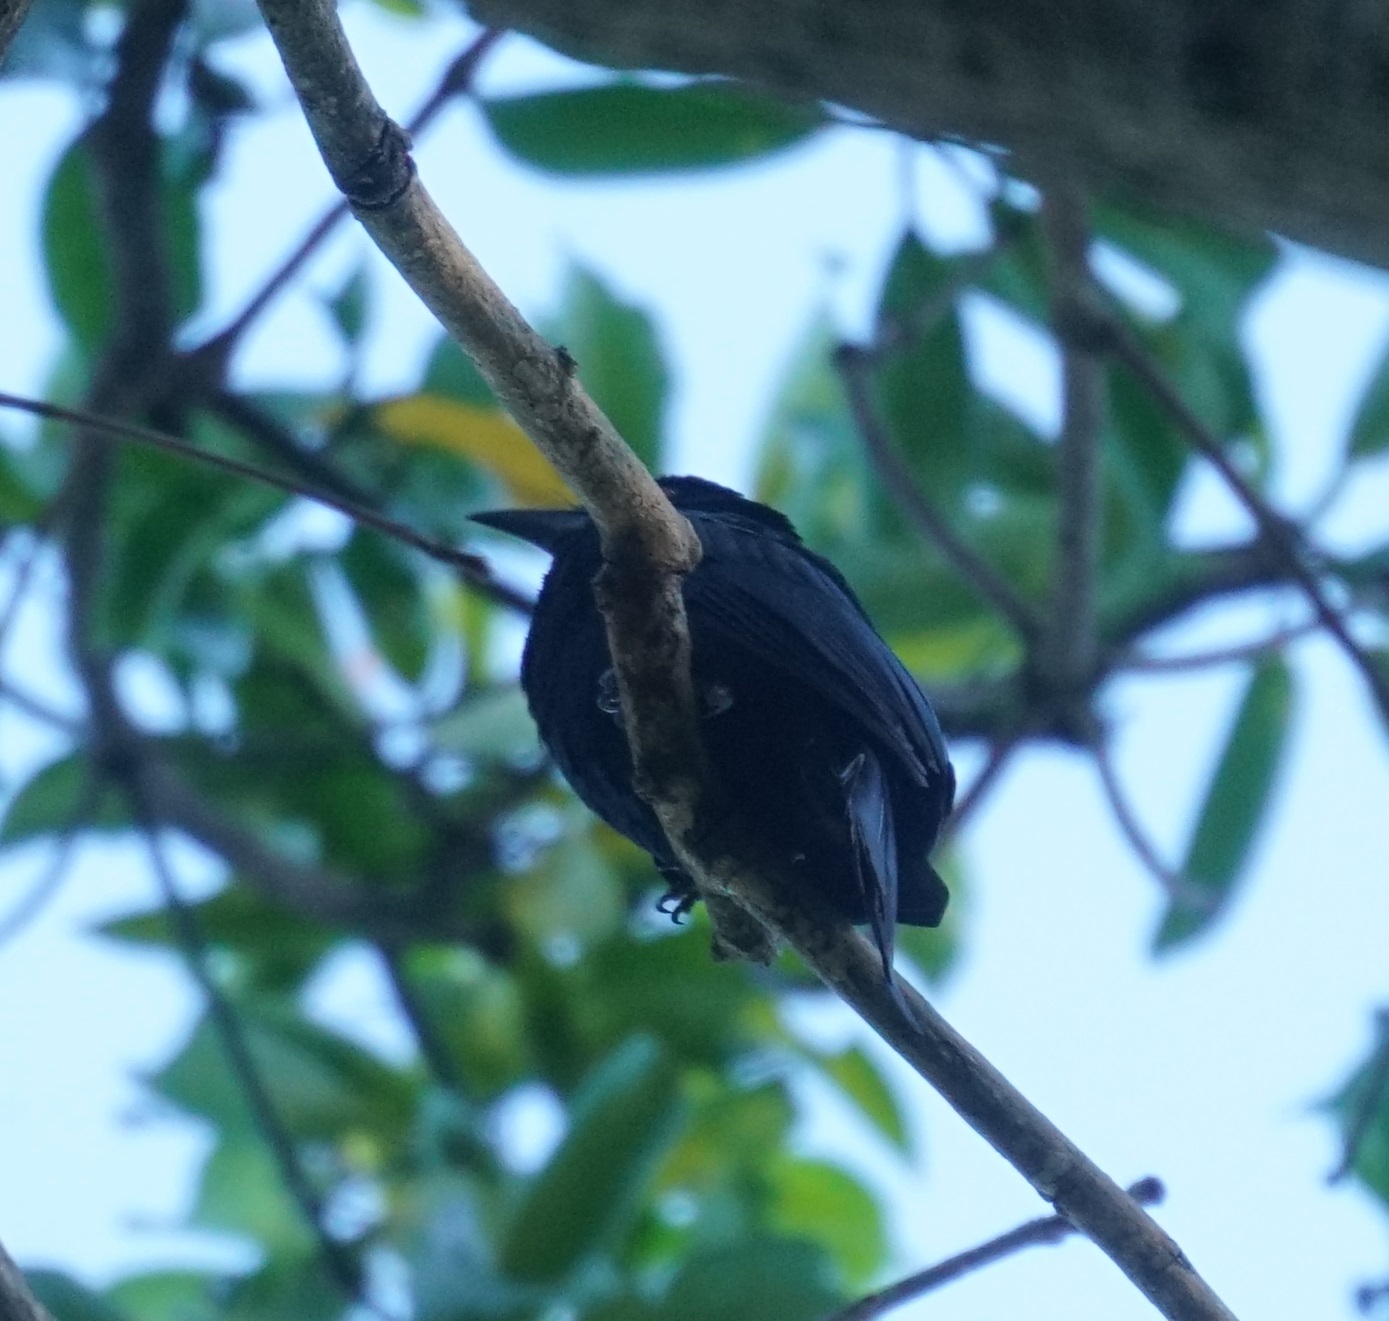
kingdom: Animalia
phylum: Chordata
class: Aves
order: Passeriformes
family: Dicruridae
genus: Dicrurus
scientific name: Dicrurus bracteatus
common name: Spangled drongo
